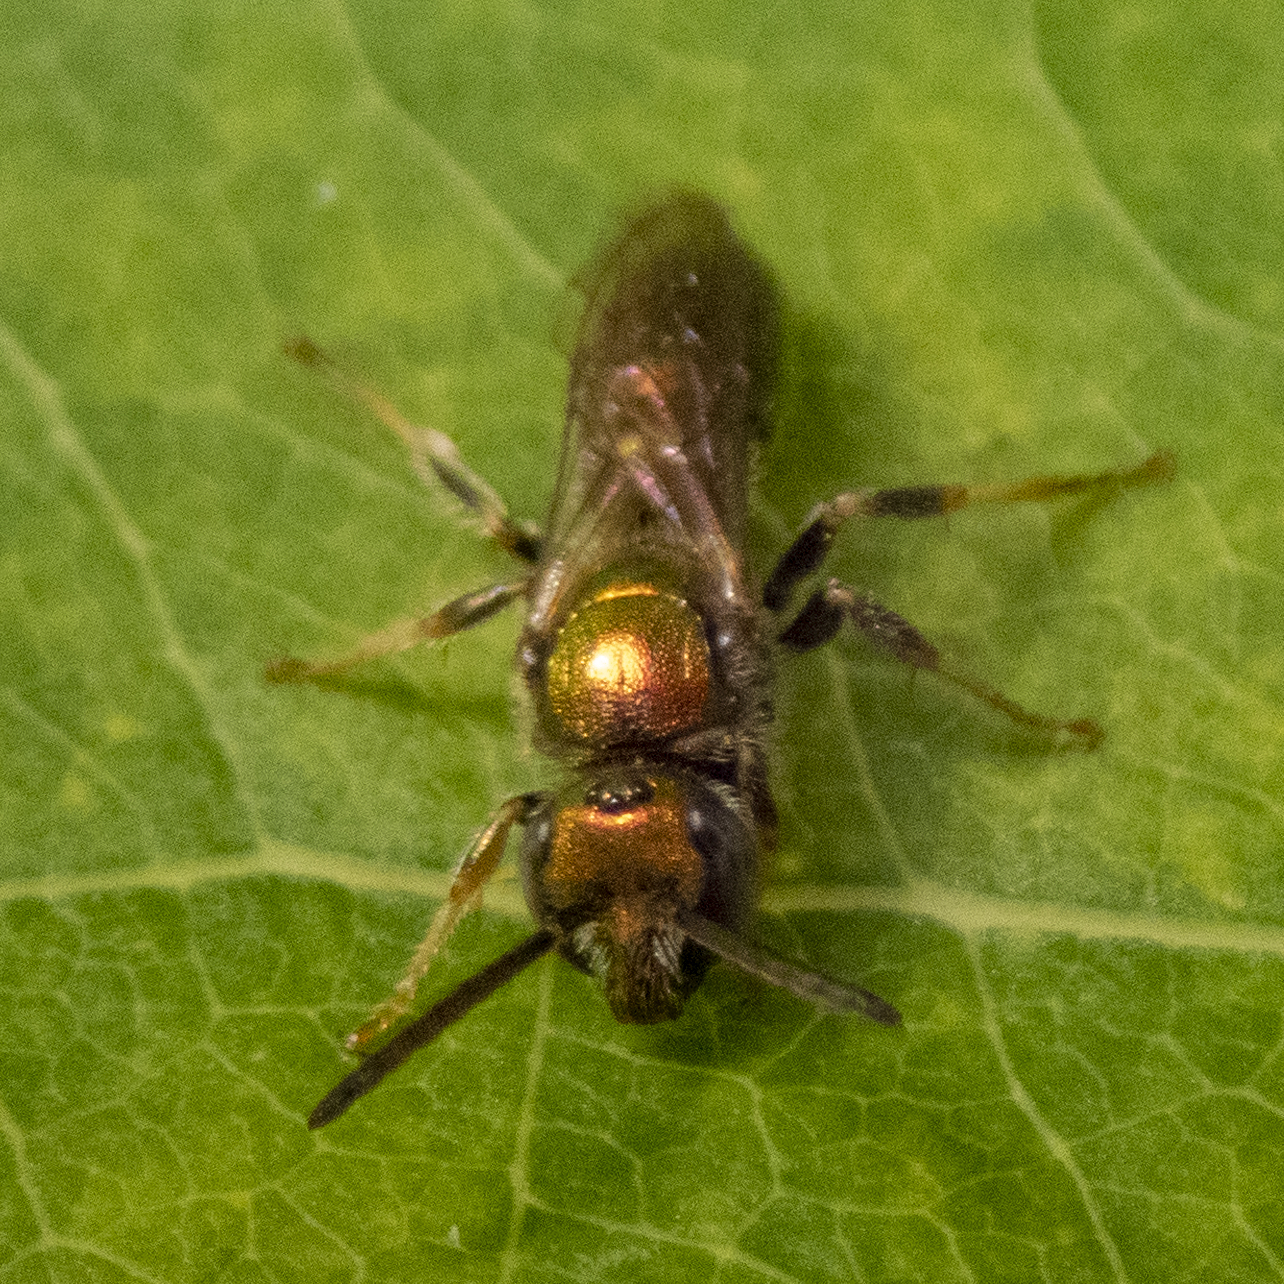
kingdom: Animalia
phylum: Arthropoda
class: Insecta
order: Hymenoptera
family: Halictidae
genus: Augochlora
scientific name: Augochlora pura
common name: Pure green sweat bee
